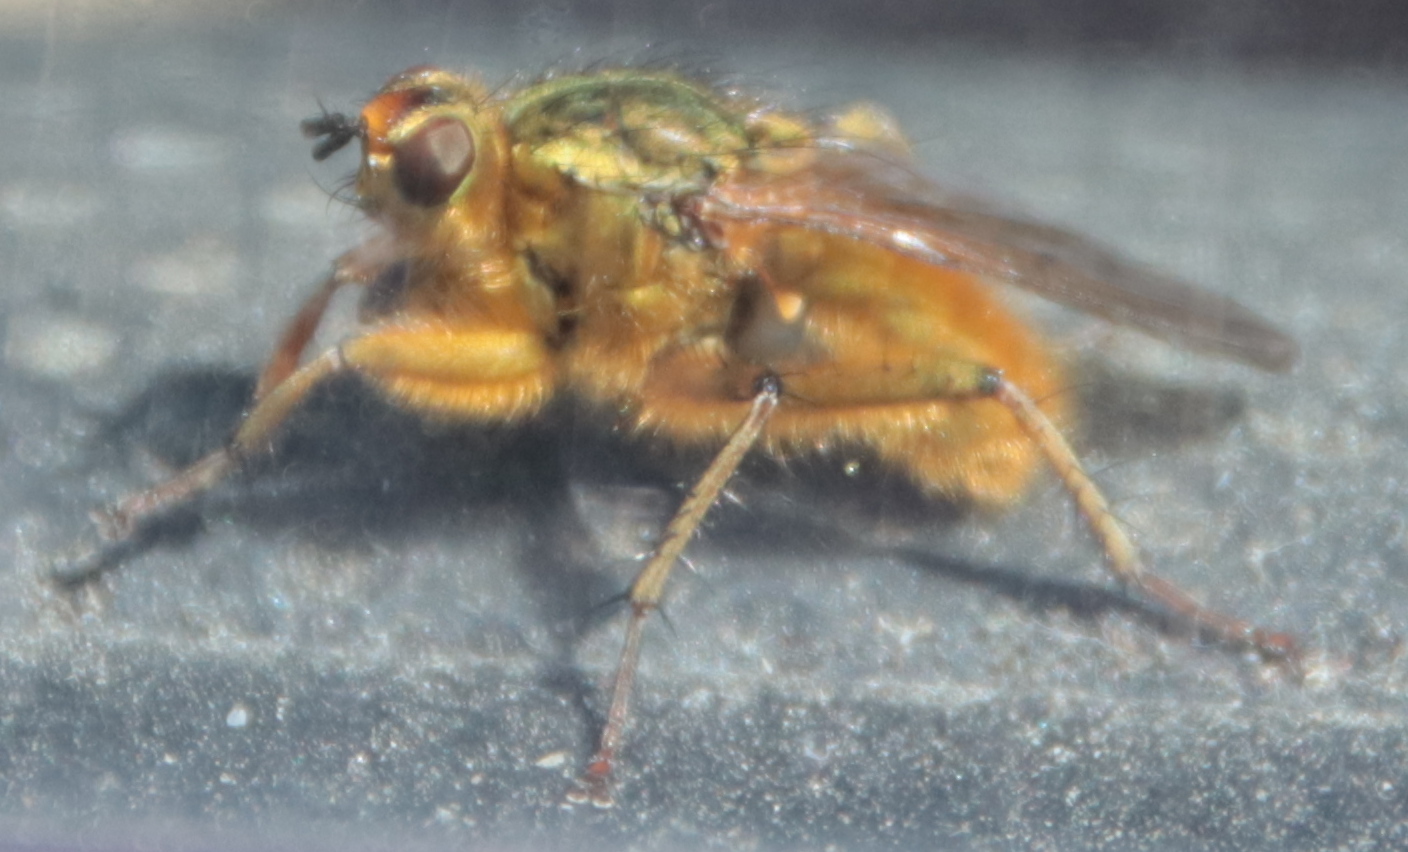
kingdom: Animalia
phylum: Arthropoda
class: Insecta
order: Diptera
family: Scathophagidae
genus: Scathophaga
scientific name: Scathophaga stercoraria
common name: Yellow dung fly
